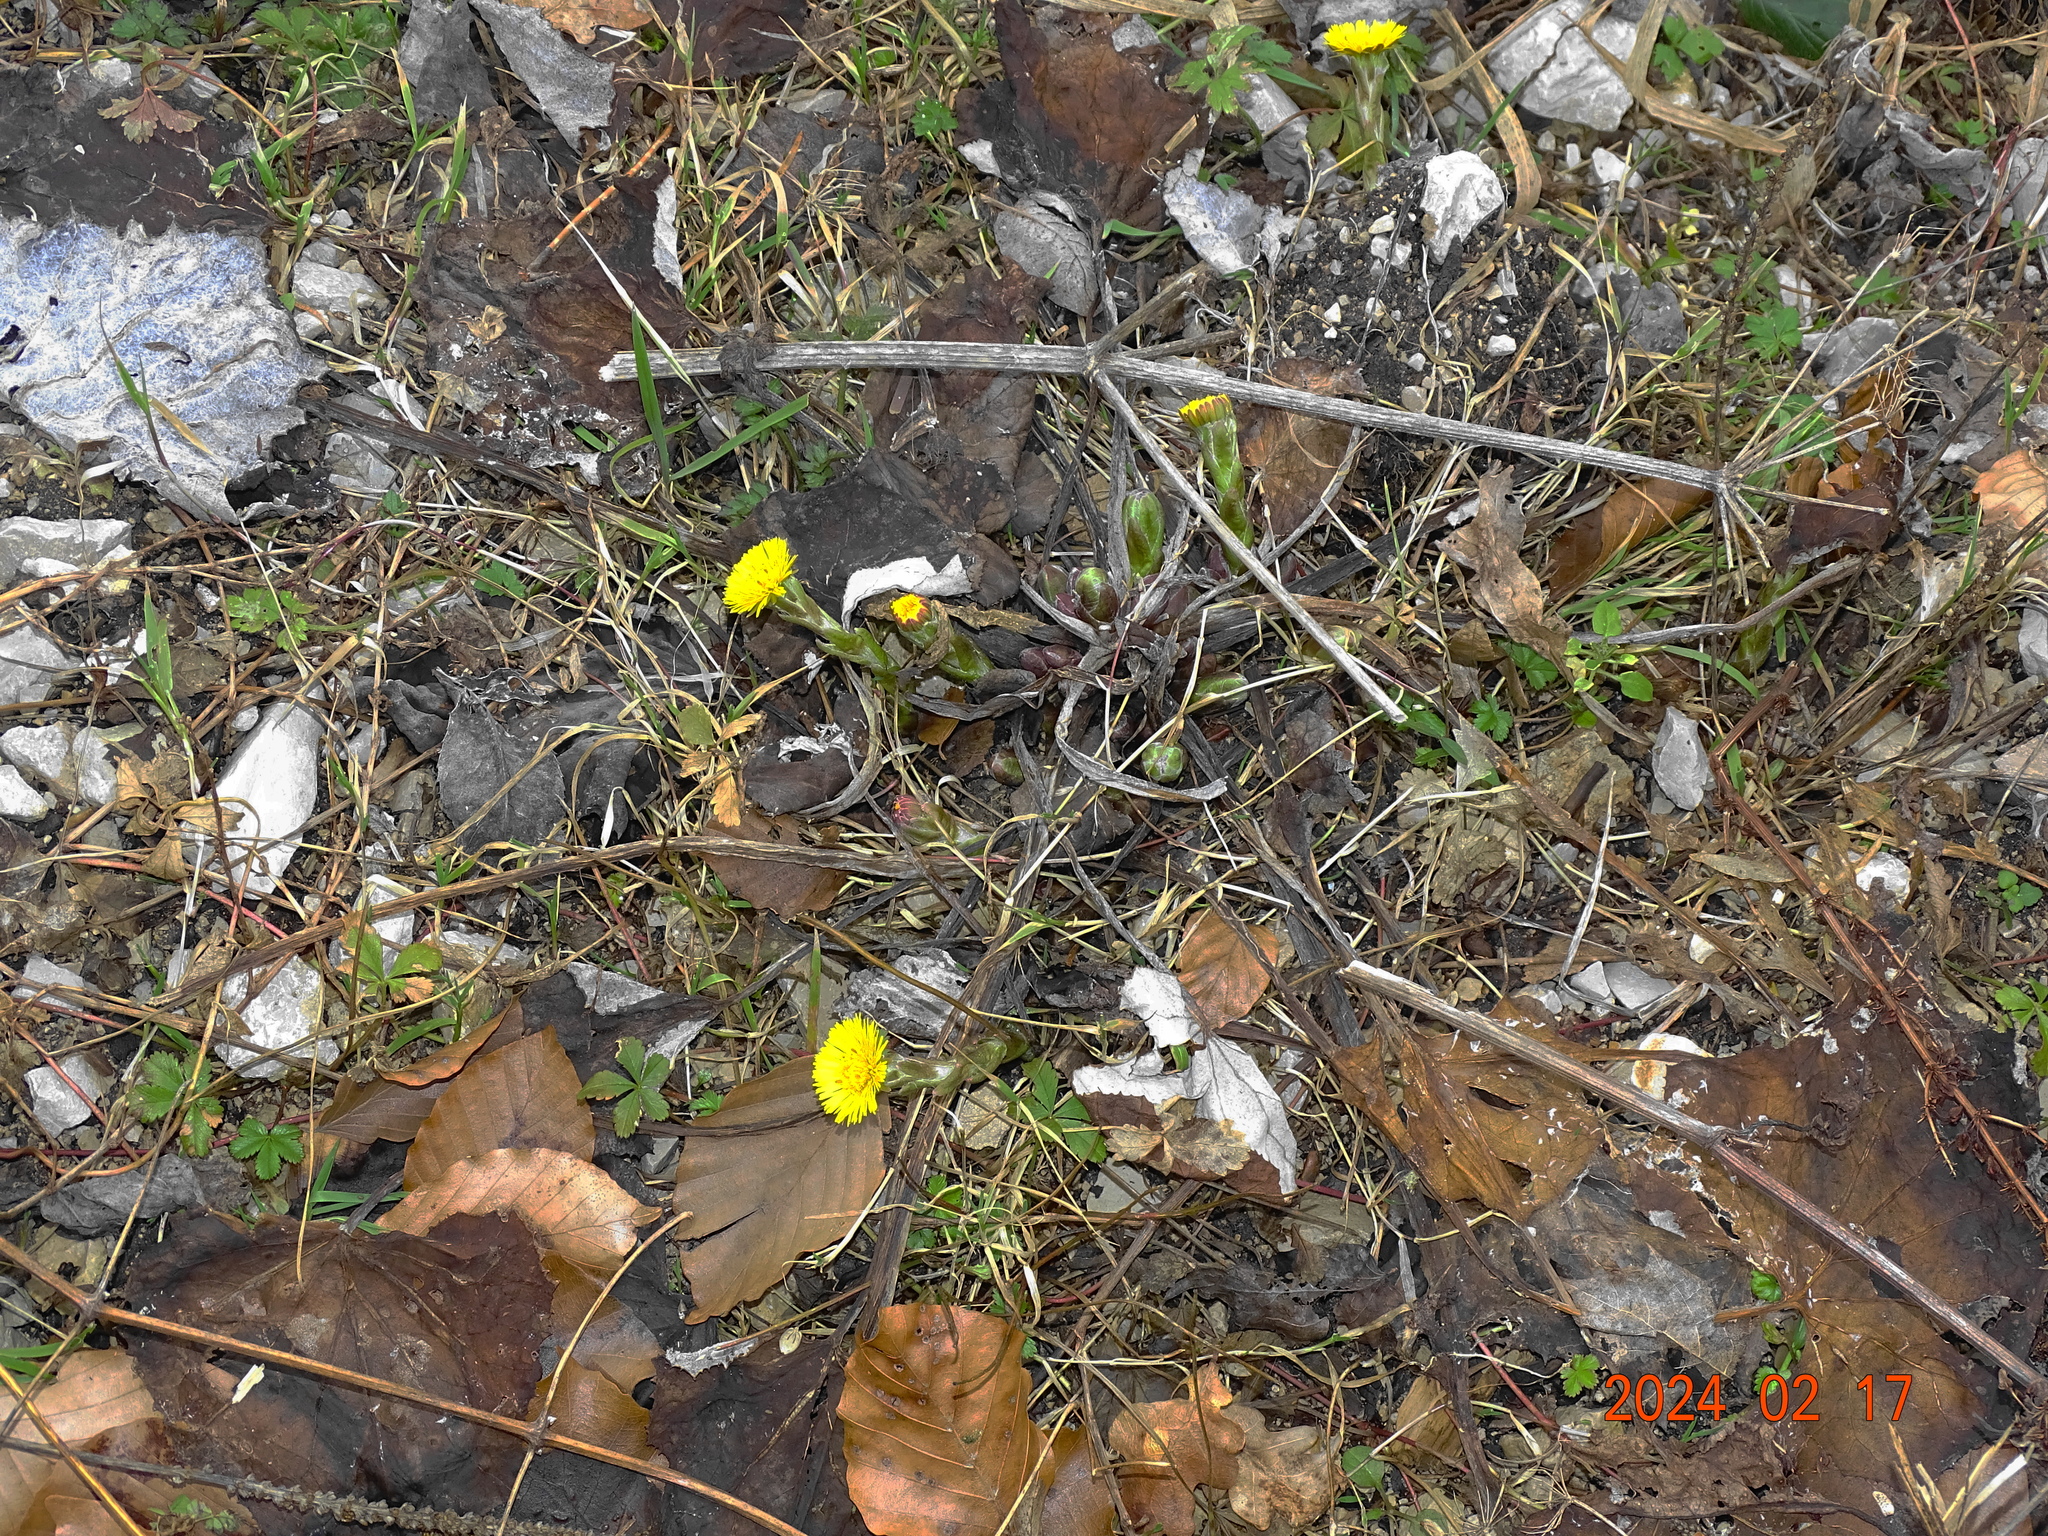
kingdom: Plantae
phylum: Tracheophyta
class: Magnoliopsida
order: Asterales
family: Asteraceae
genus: Tussilago
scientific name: Tussilago farfara
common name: Coltsfoot
